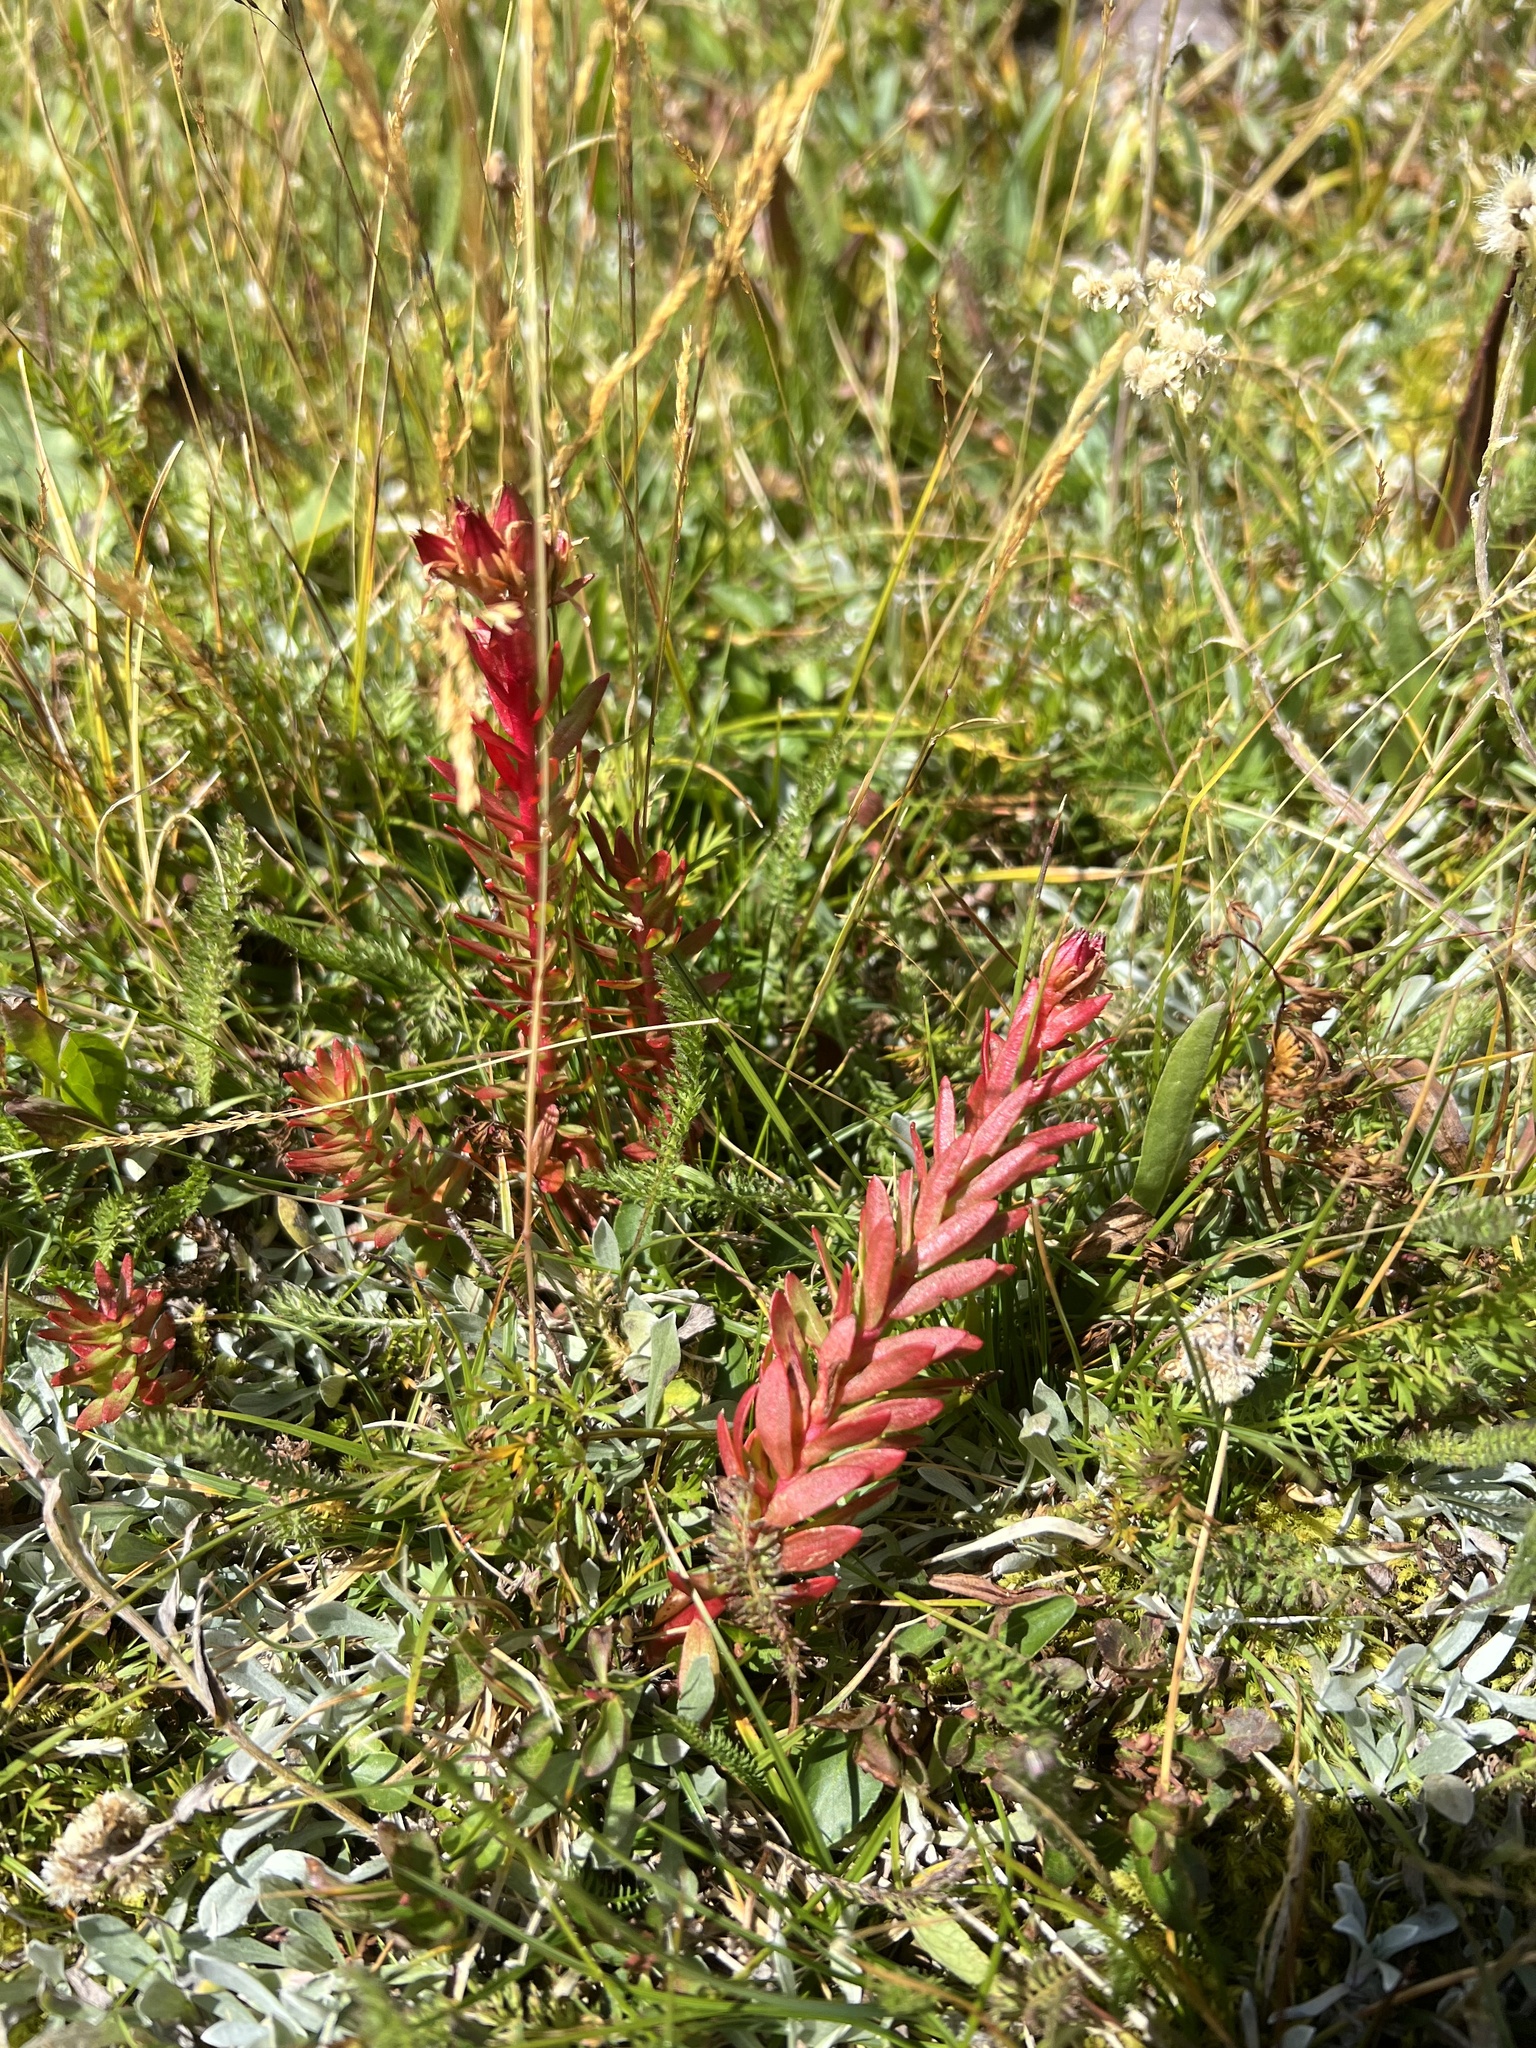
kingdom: Plantae
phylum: Tracheophyta
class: Magnoliopsida
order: Saxifragales
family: Crassulaceae
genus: Rhodiola
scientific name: Rhodiola rhodantha
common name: Red orpine
